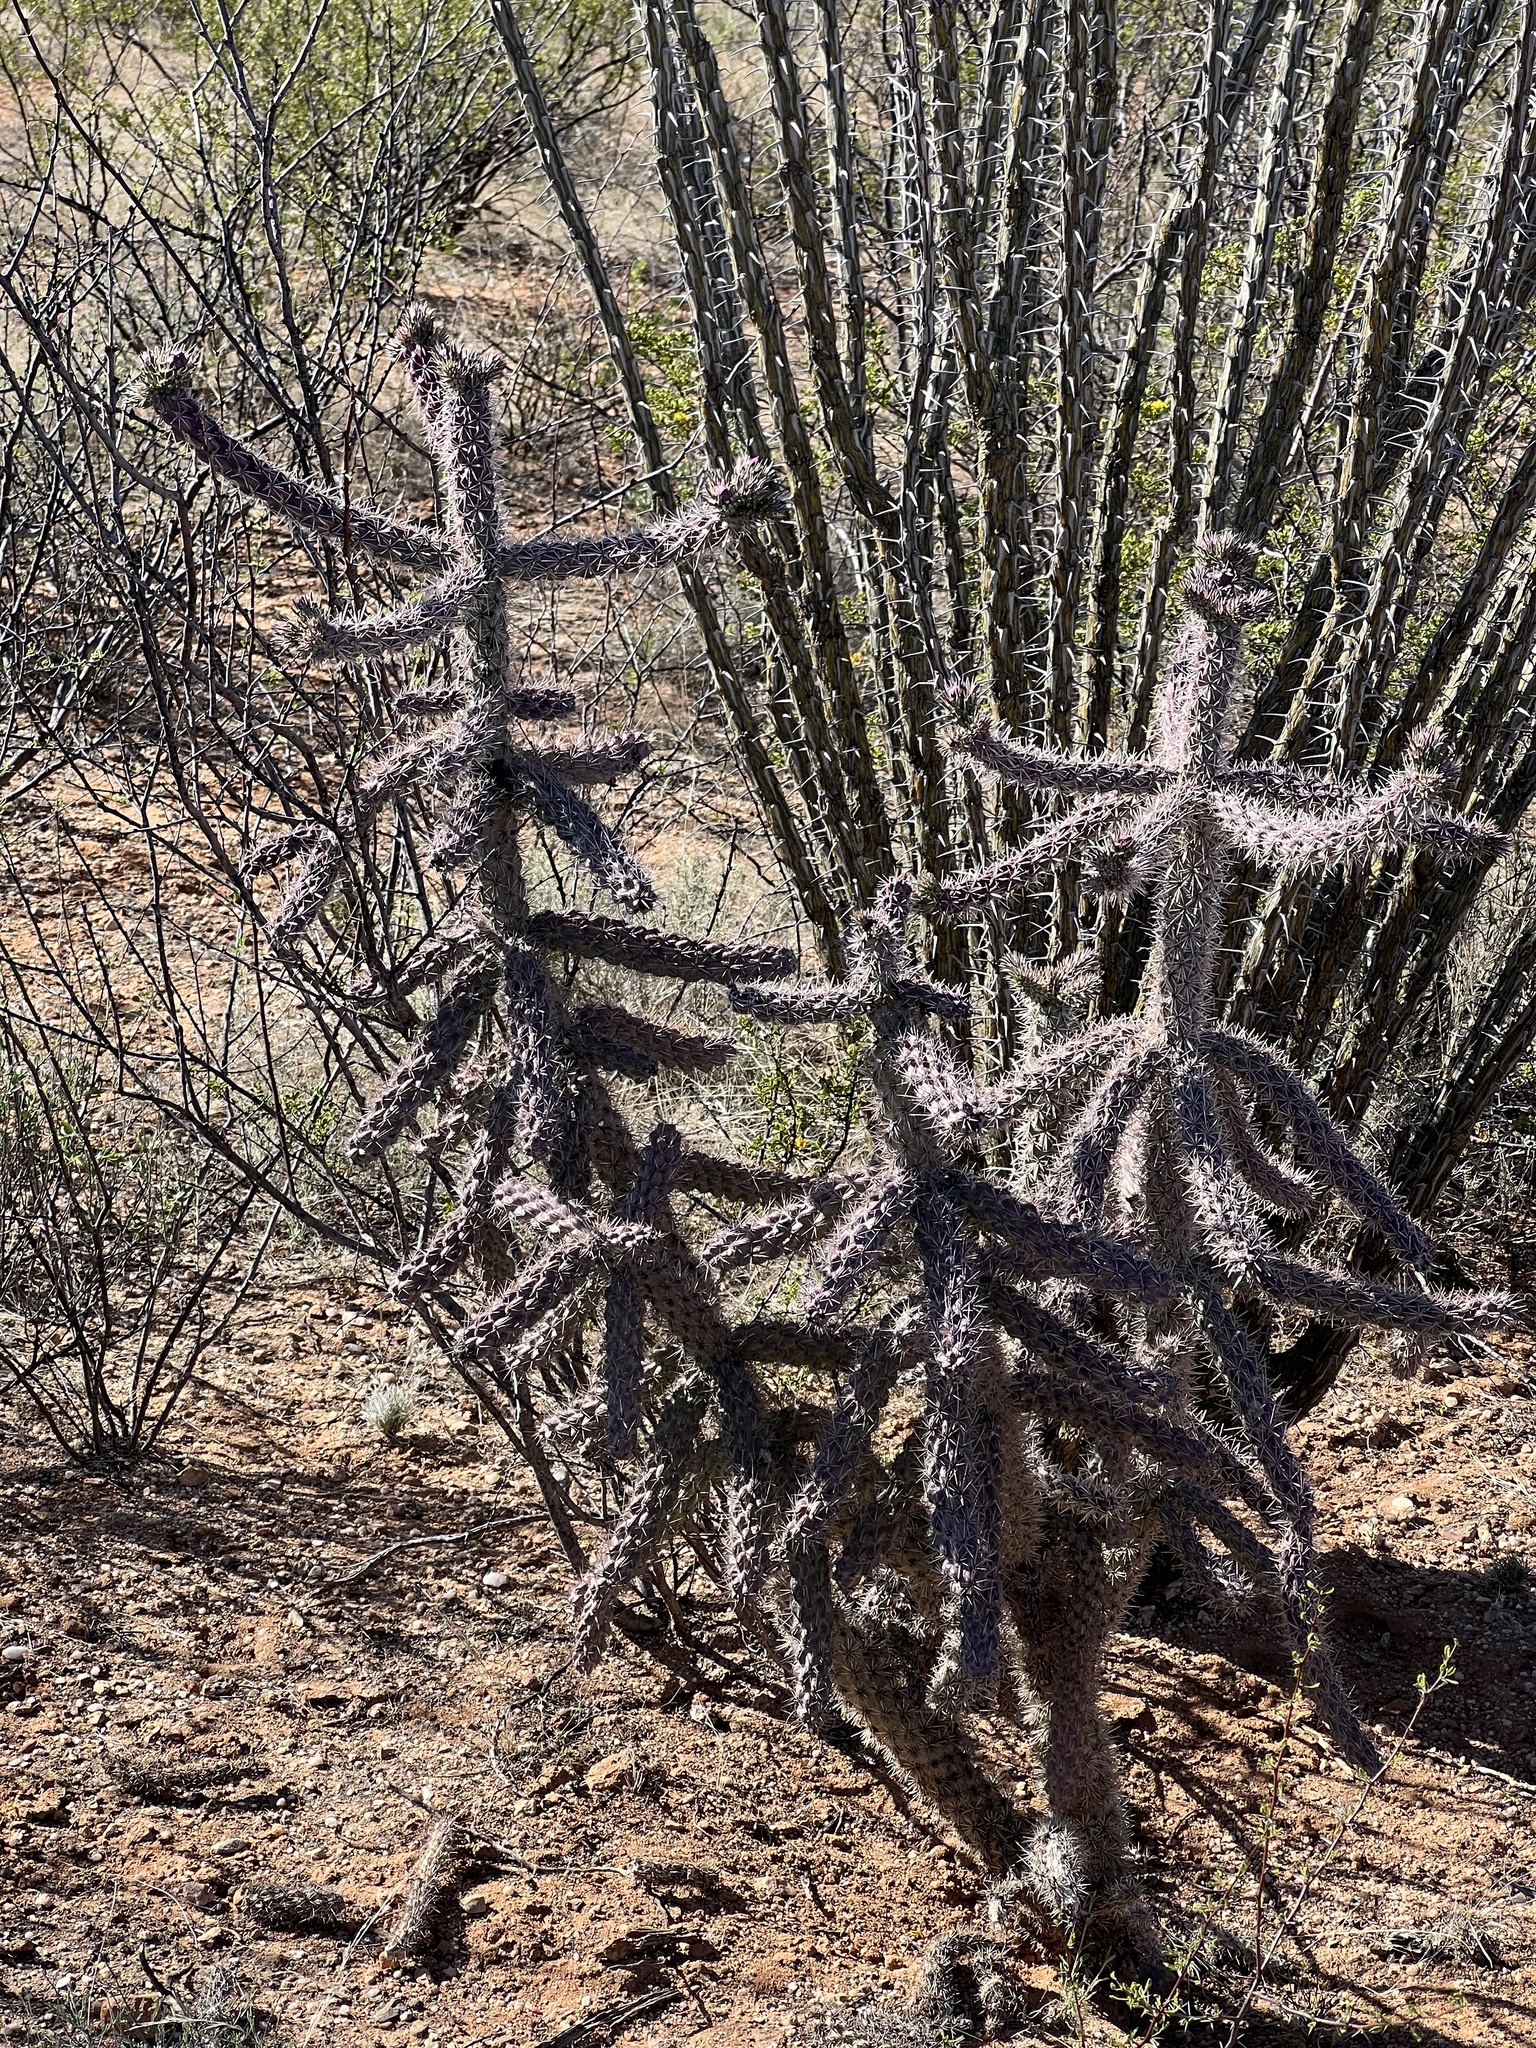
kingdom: Plantae
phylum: Tracheophyta
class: Magnoliopsida
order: Caryophyllales
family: Cactaceae
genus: Cylindropuntia
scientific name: Cylindropuntia imbricata
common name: Candelabrum cactus
